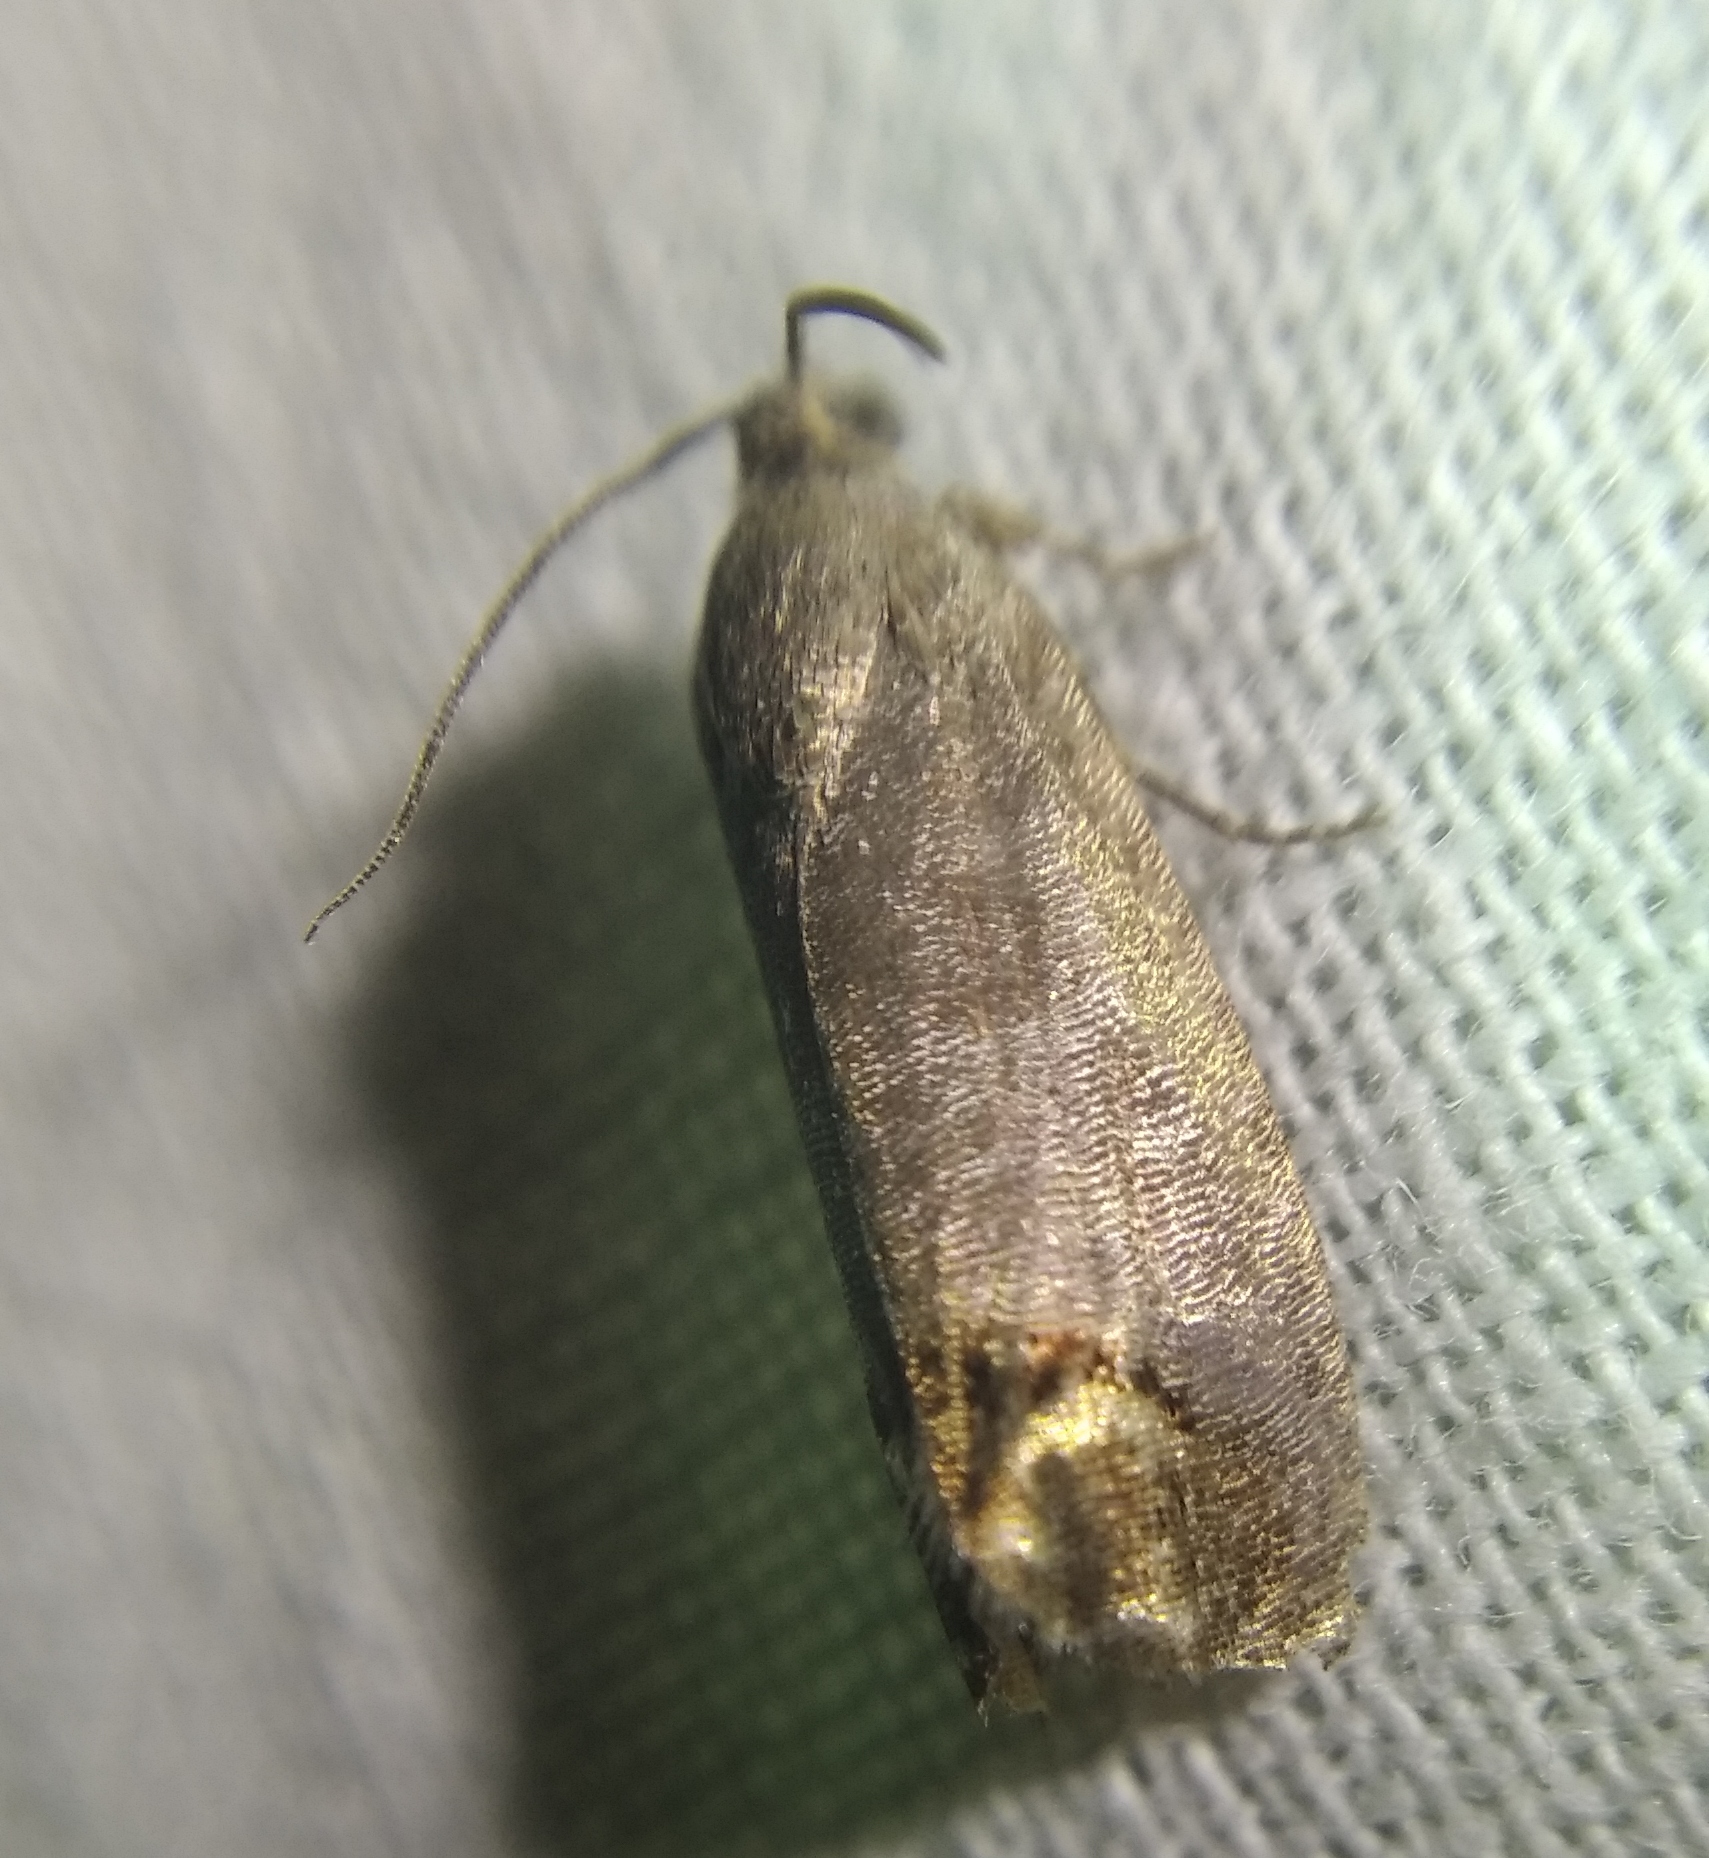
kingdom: Animalia
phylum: Arthropoda
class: Insecta
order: Lepidoptera
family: Tortricidae
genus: Cydia
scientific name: Cydia pomonella
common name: Codling moth
